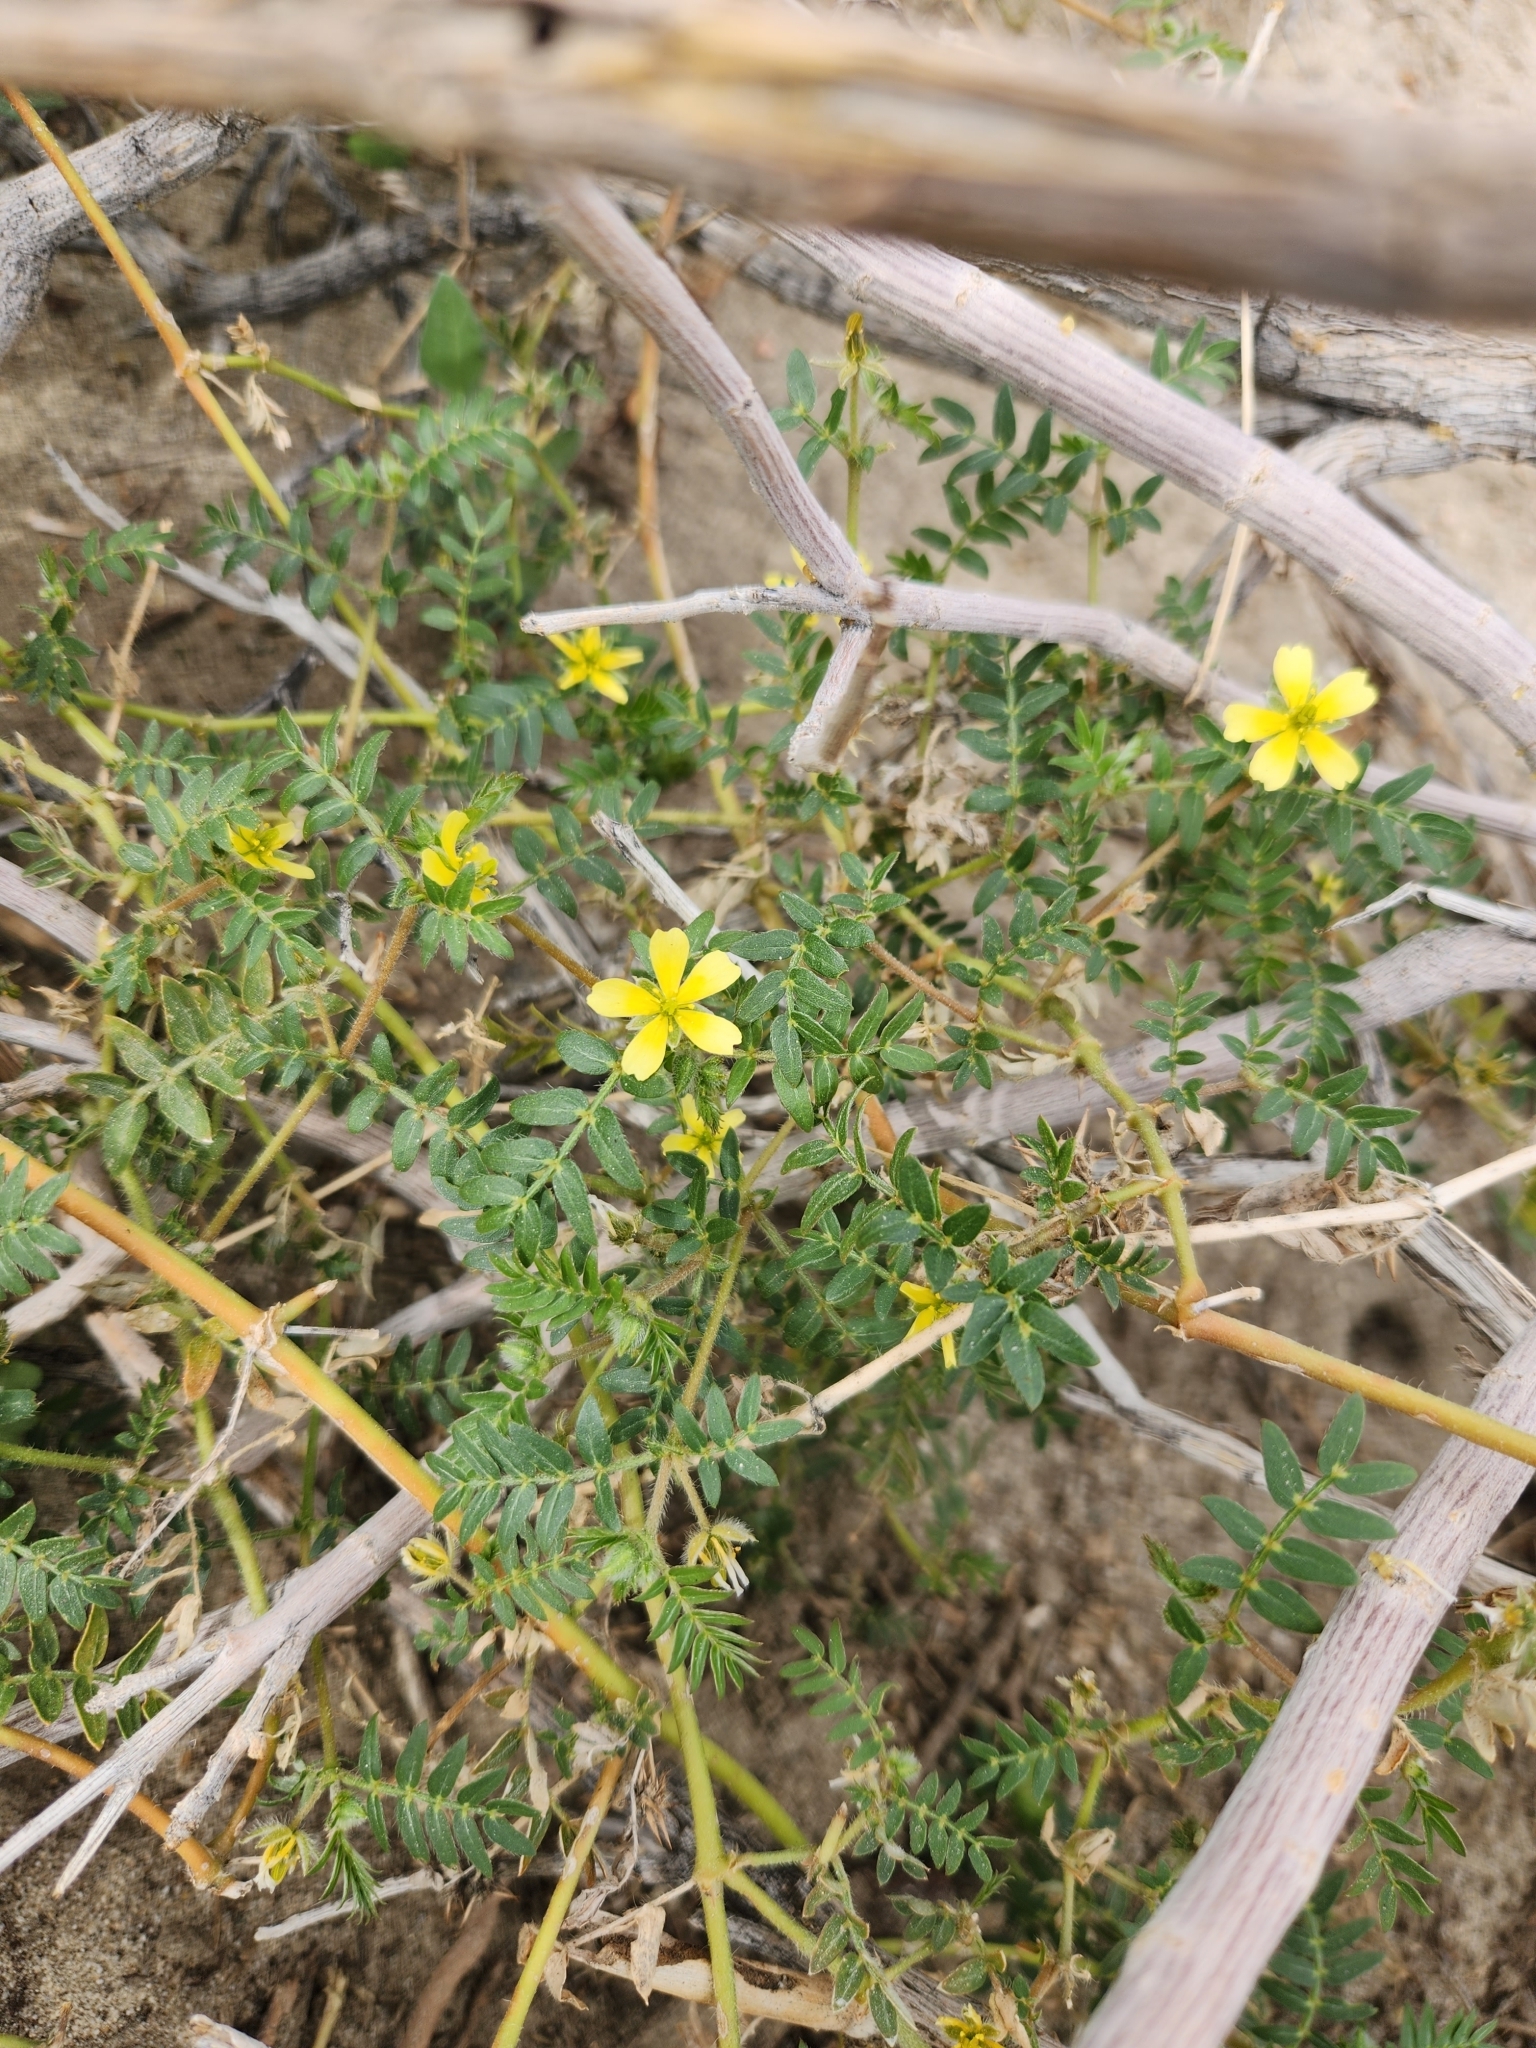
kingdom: Plantae
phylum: Tracheophyta
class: Magnoliopsida
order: Zygophyllales
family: Zygophyllaceae
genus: Tribulus
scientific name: Tribulus terrestris
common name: Puncturevine
